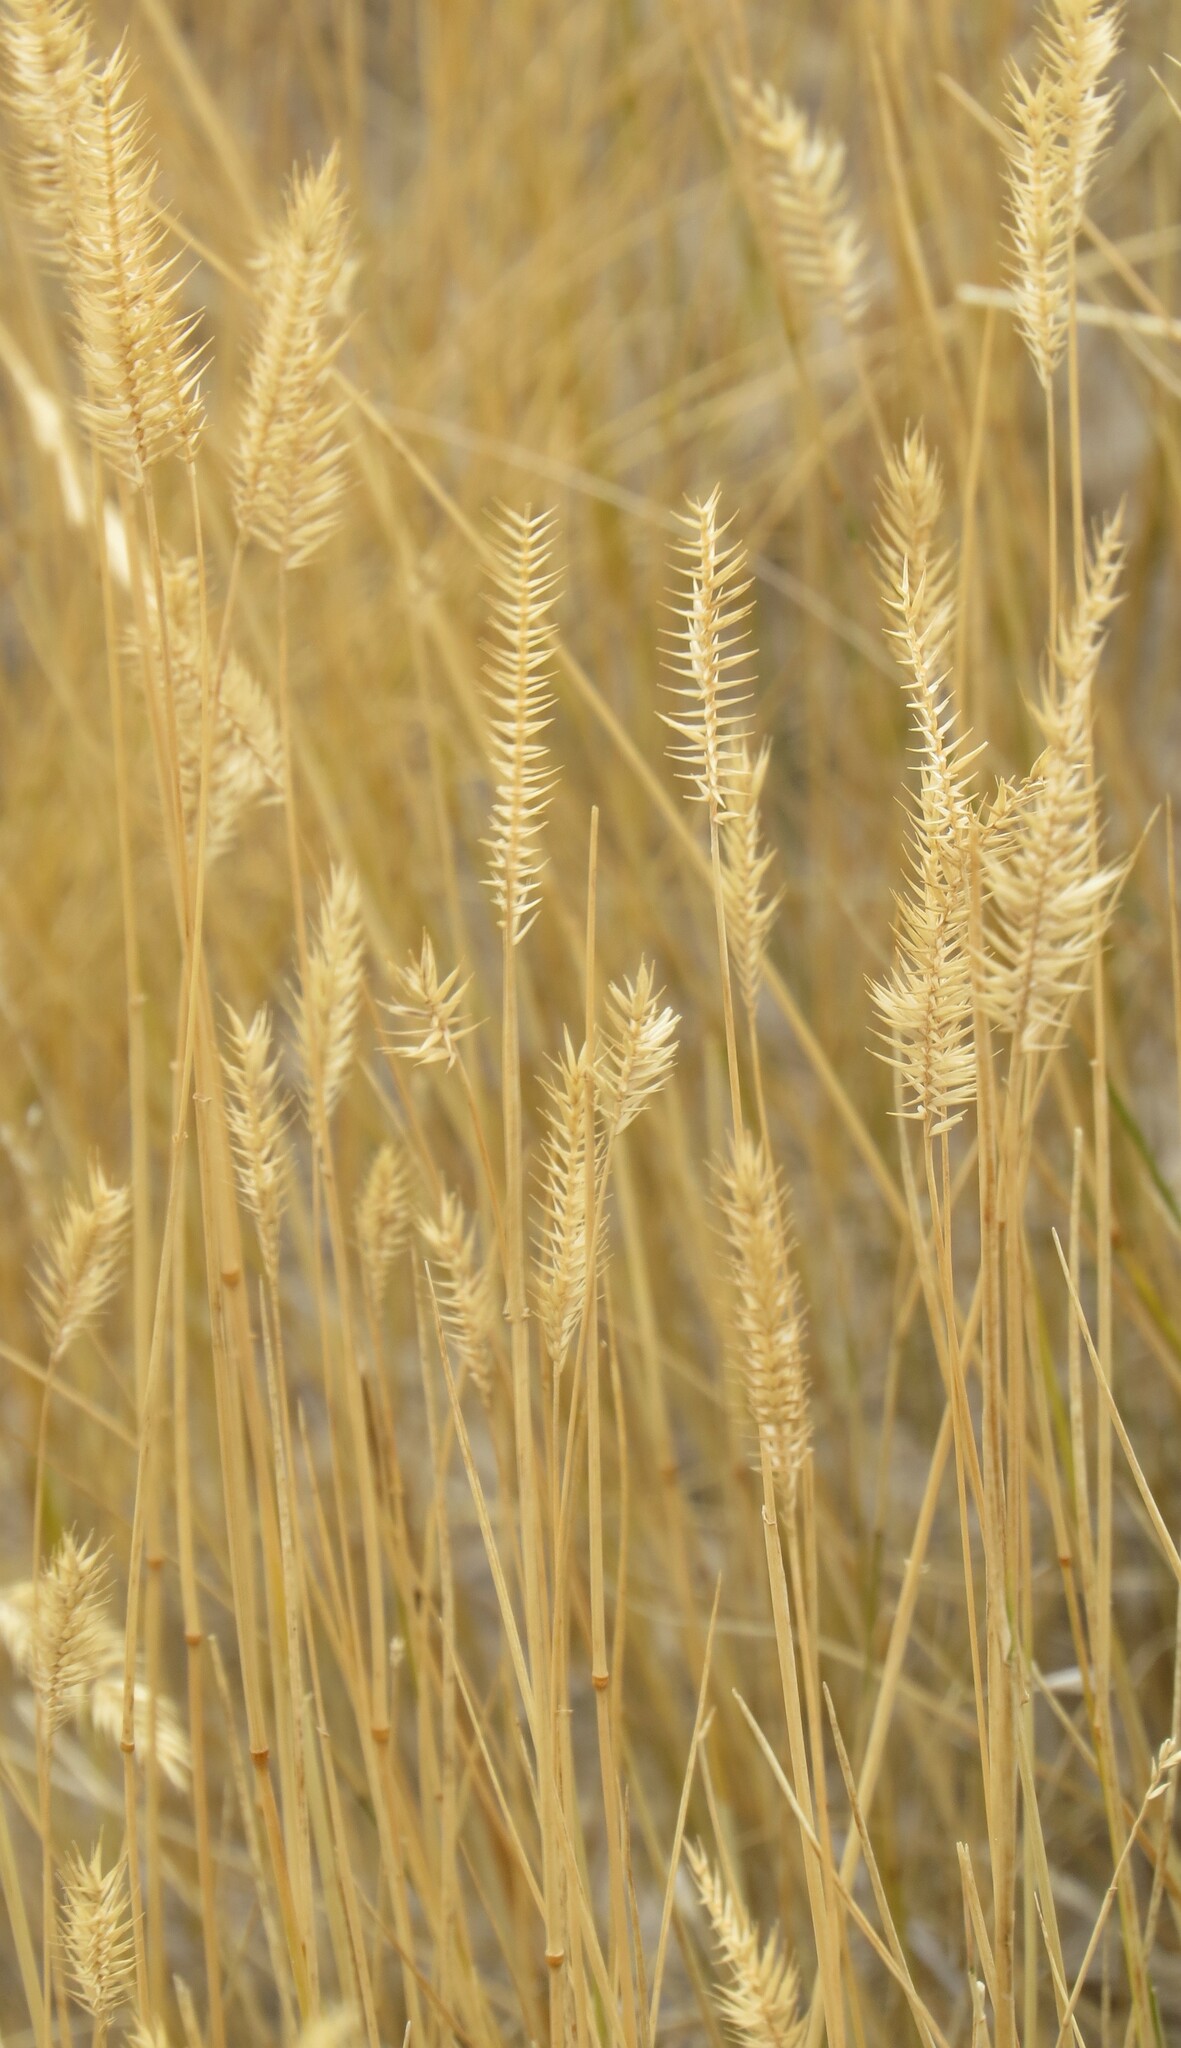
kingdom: Plantae
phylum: Tracheophyta
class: Liliopsida
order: Poales
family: Poaceae
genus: Agropyron
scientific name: Agropyron cristatum
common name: Crested wheatgrass
